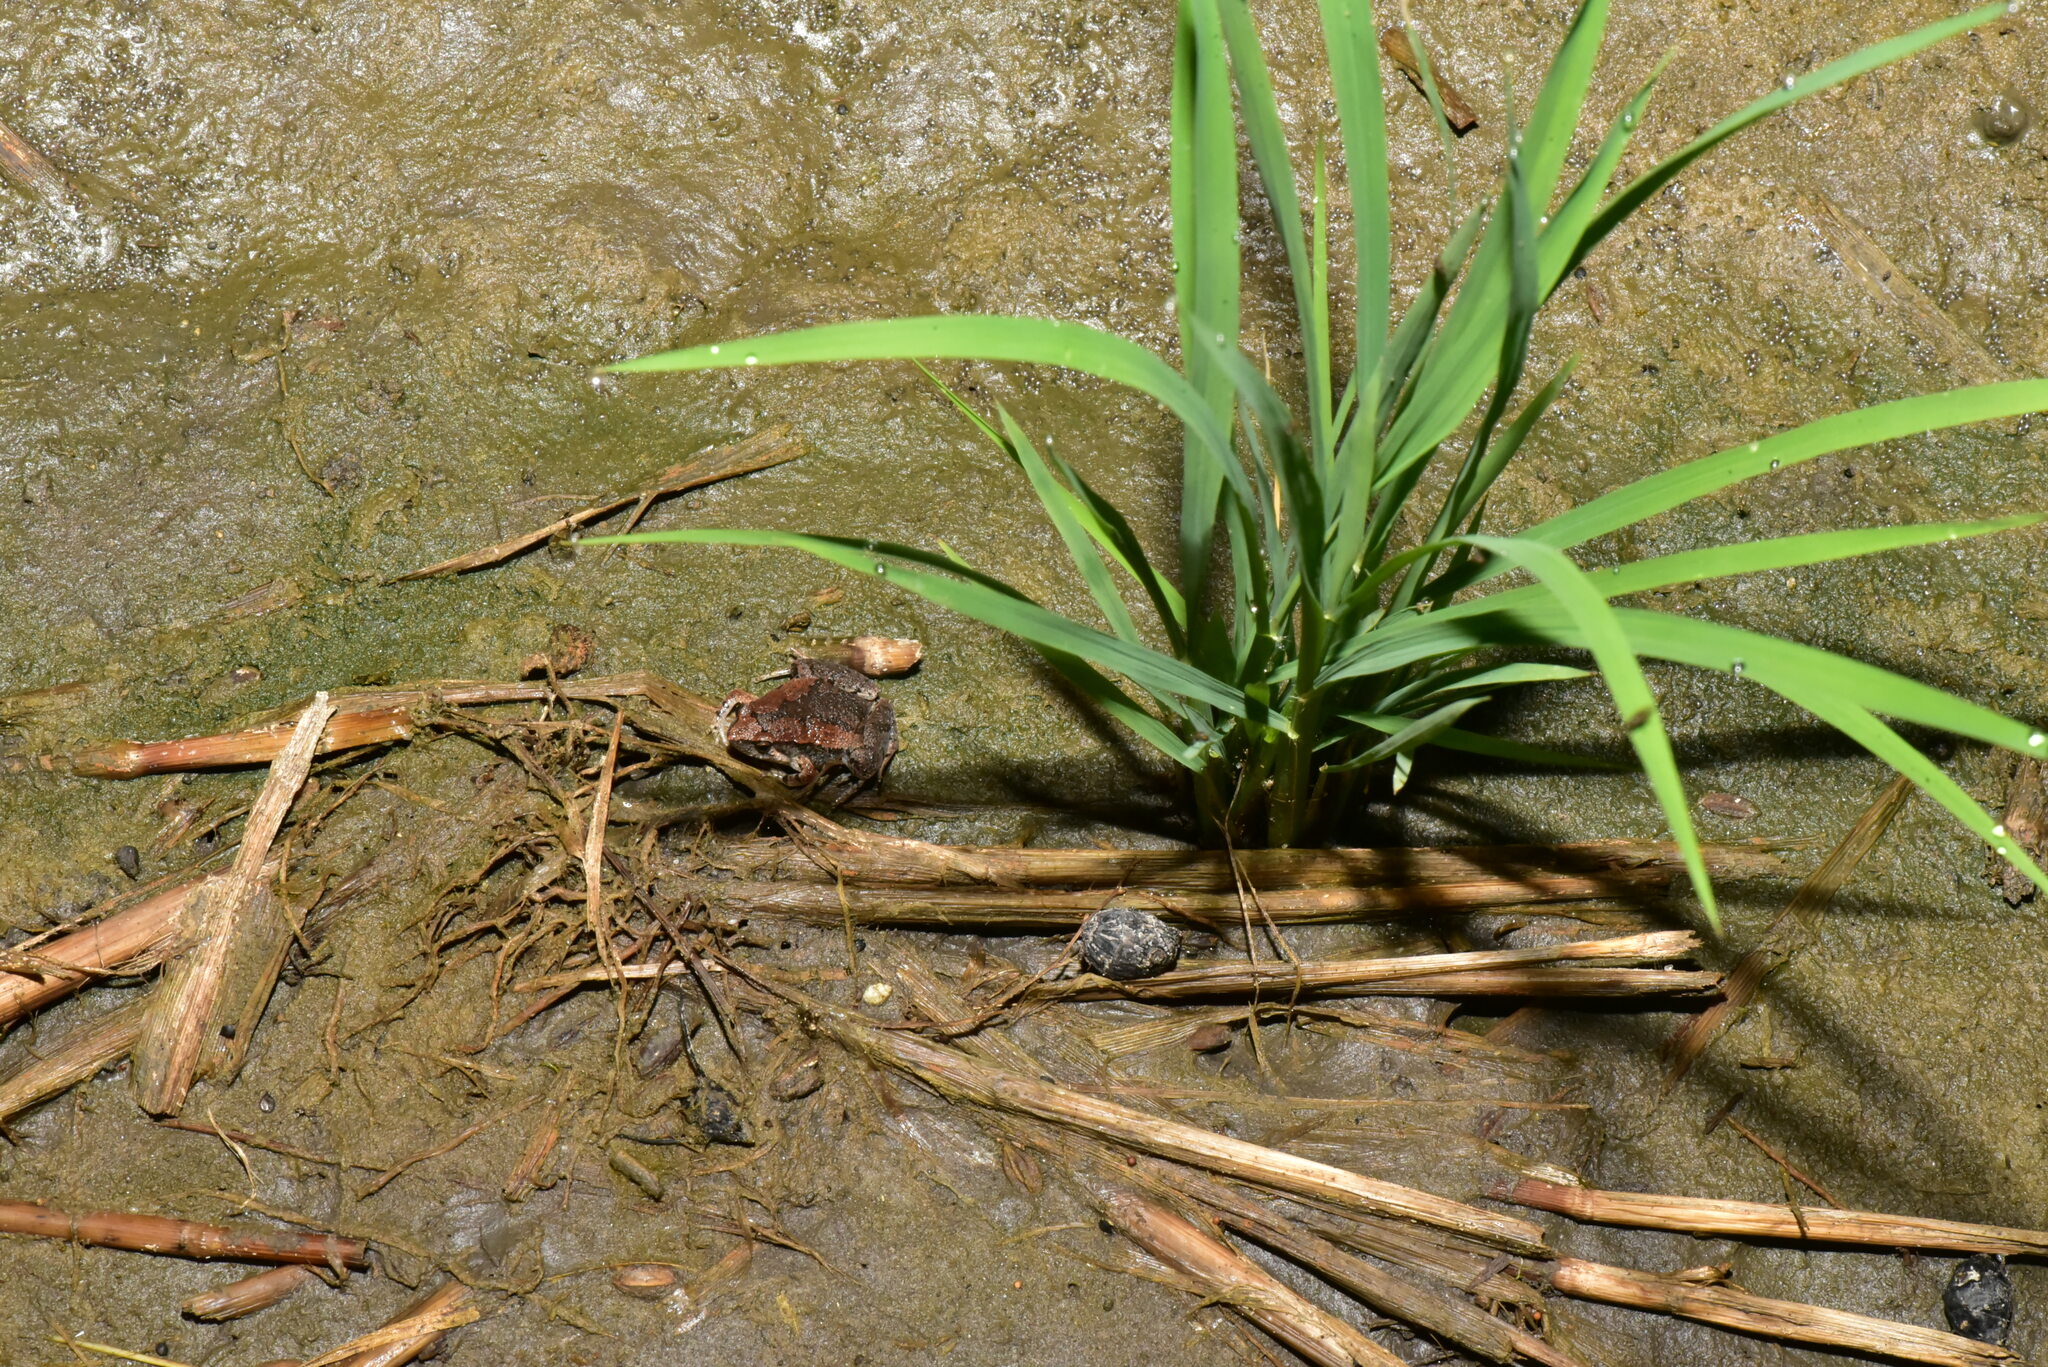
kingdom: Animalia
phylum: Chordata
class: Amphibia
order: Anura
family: Microhylidae
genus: Microhyla
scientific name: Microhyla fissipes
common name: Ornate narrow-mouthed frog
